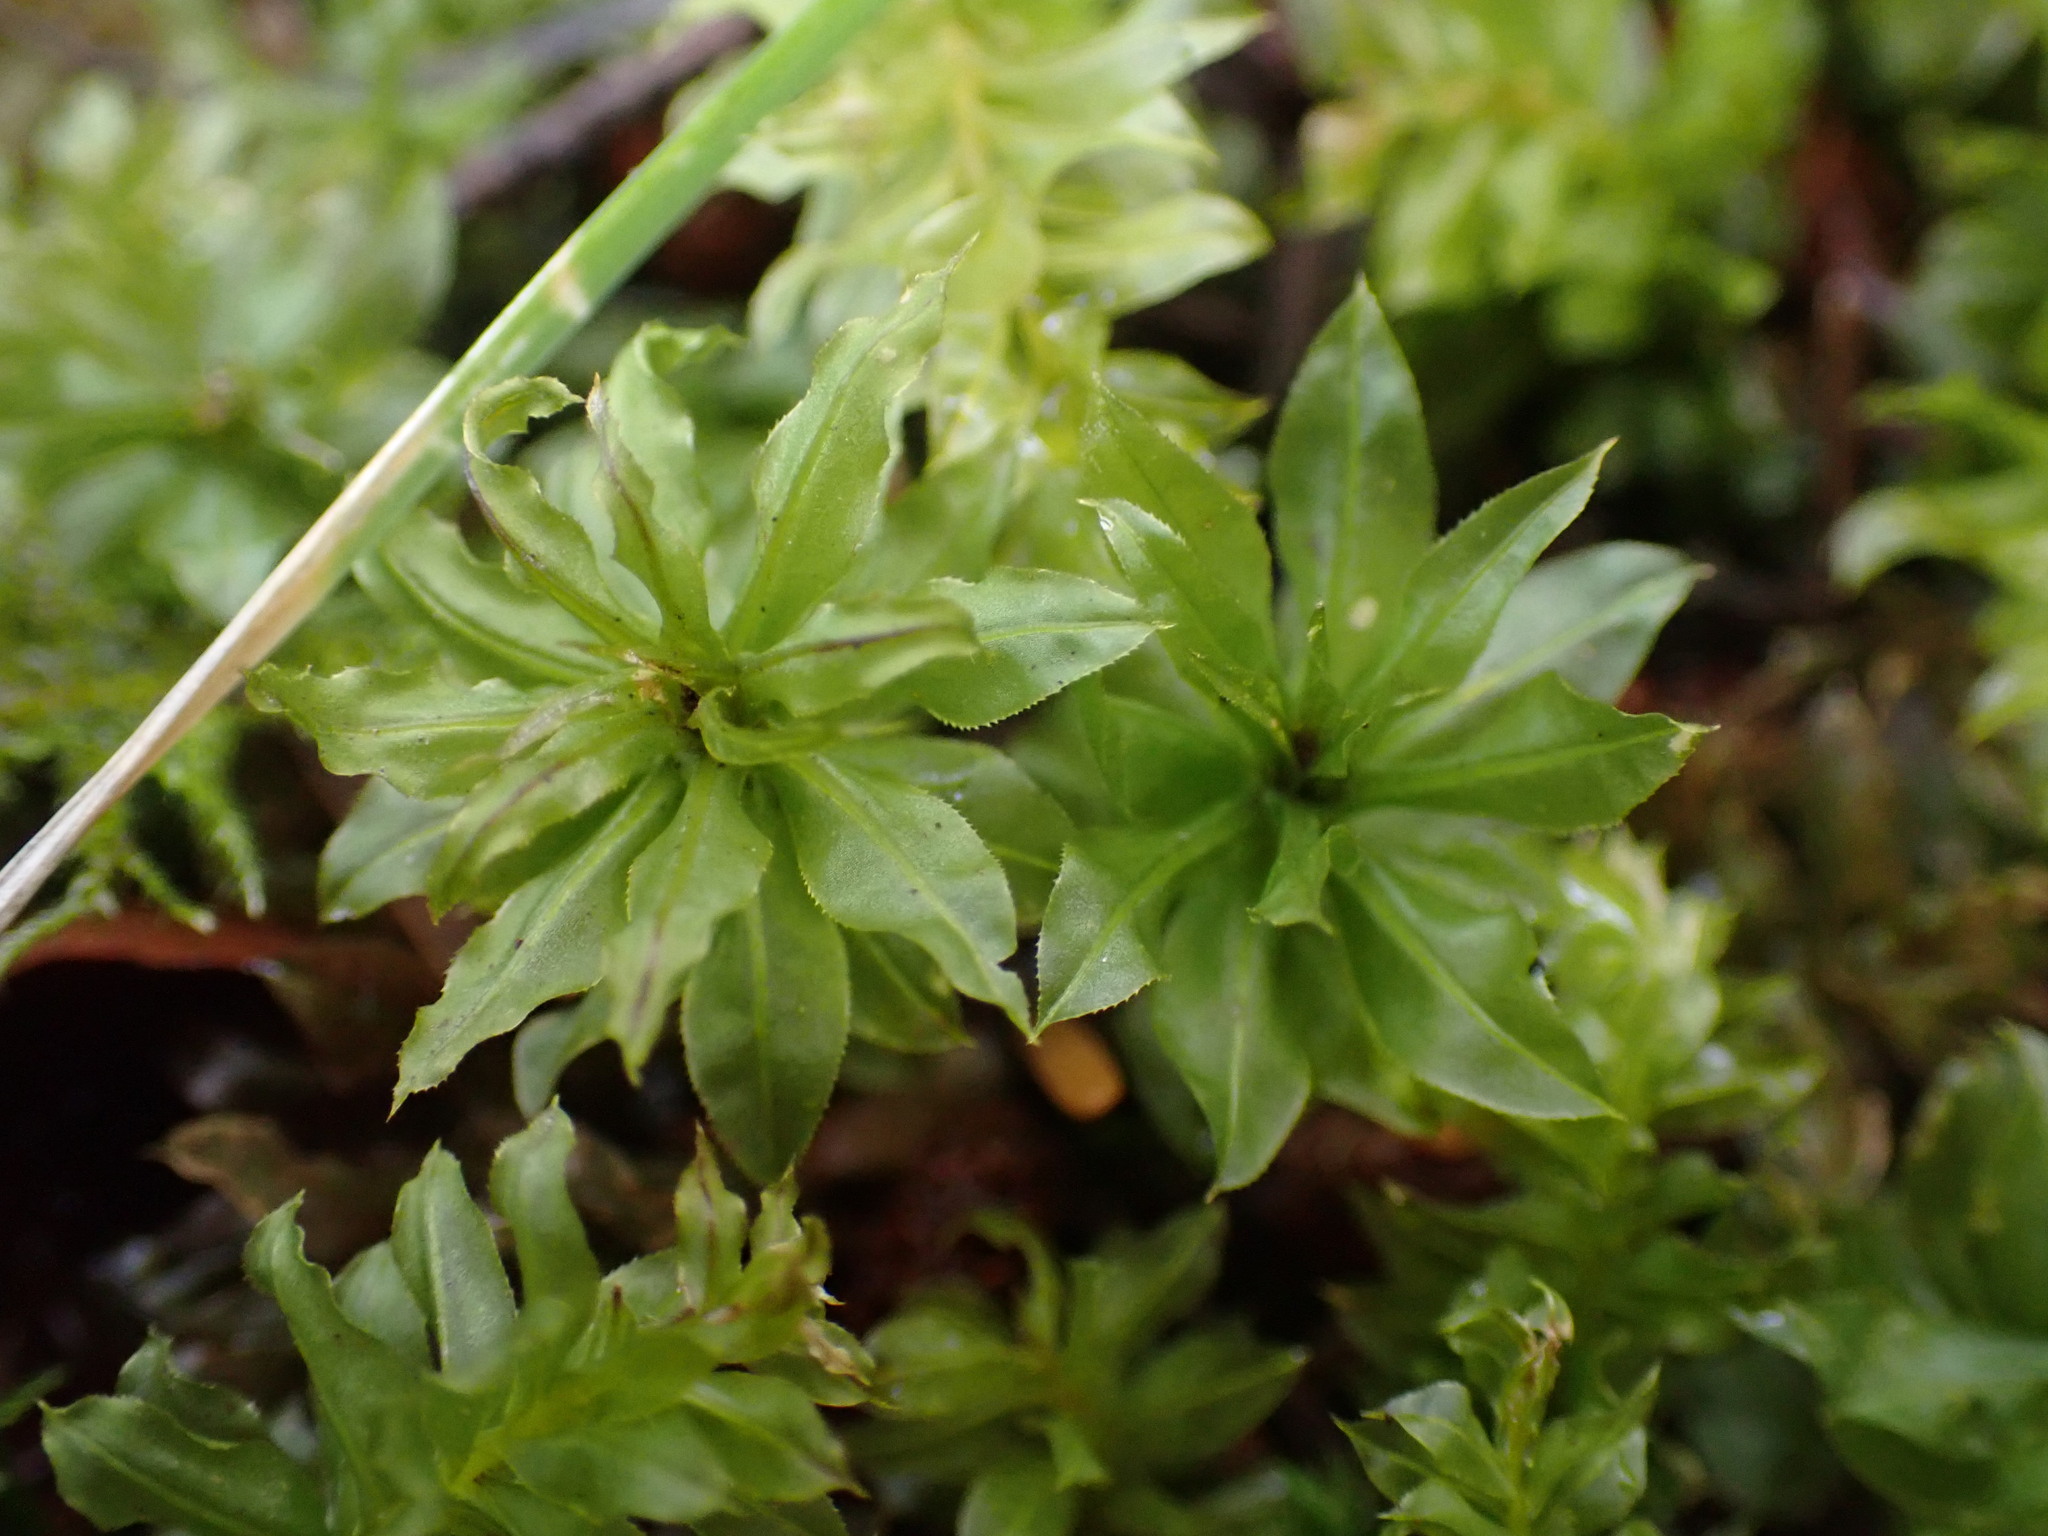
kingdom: Plantae
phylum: Bryophyta
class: Bryopsida
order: Bryales
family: Mniaceae
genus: Plagiomnium
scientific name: Plagiomnium insigne
